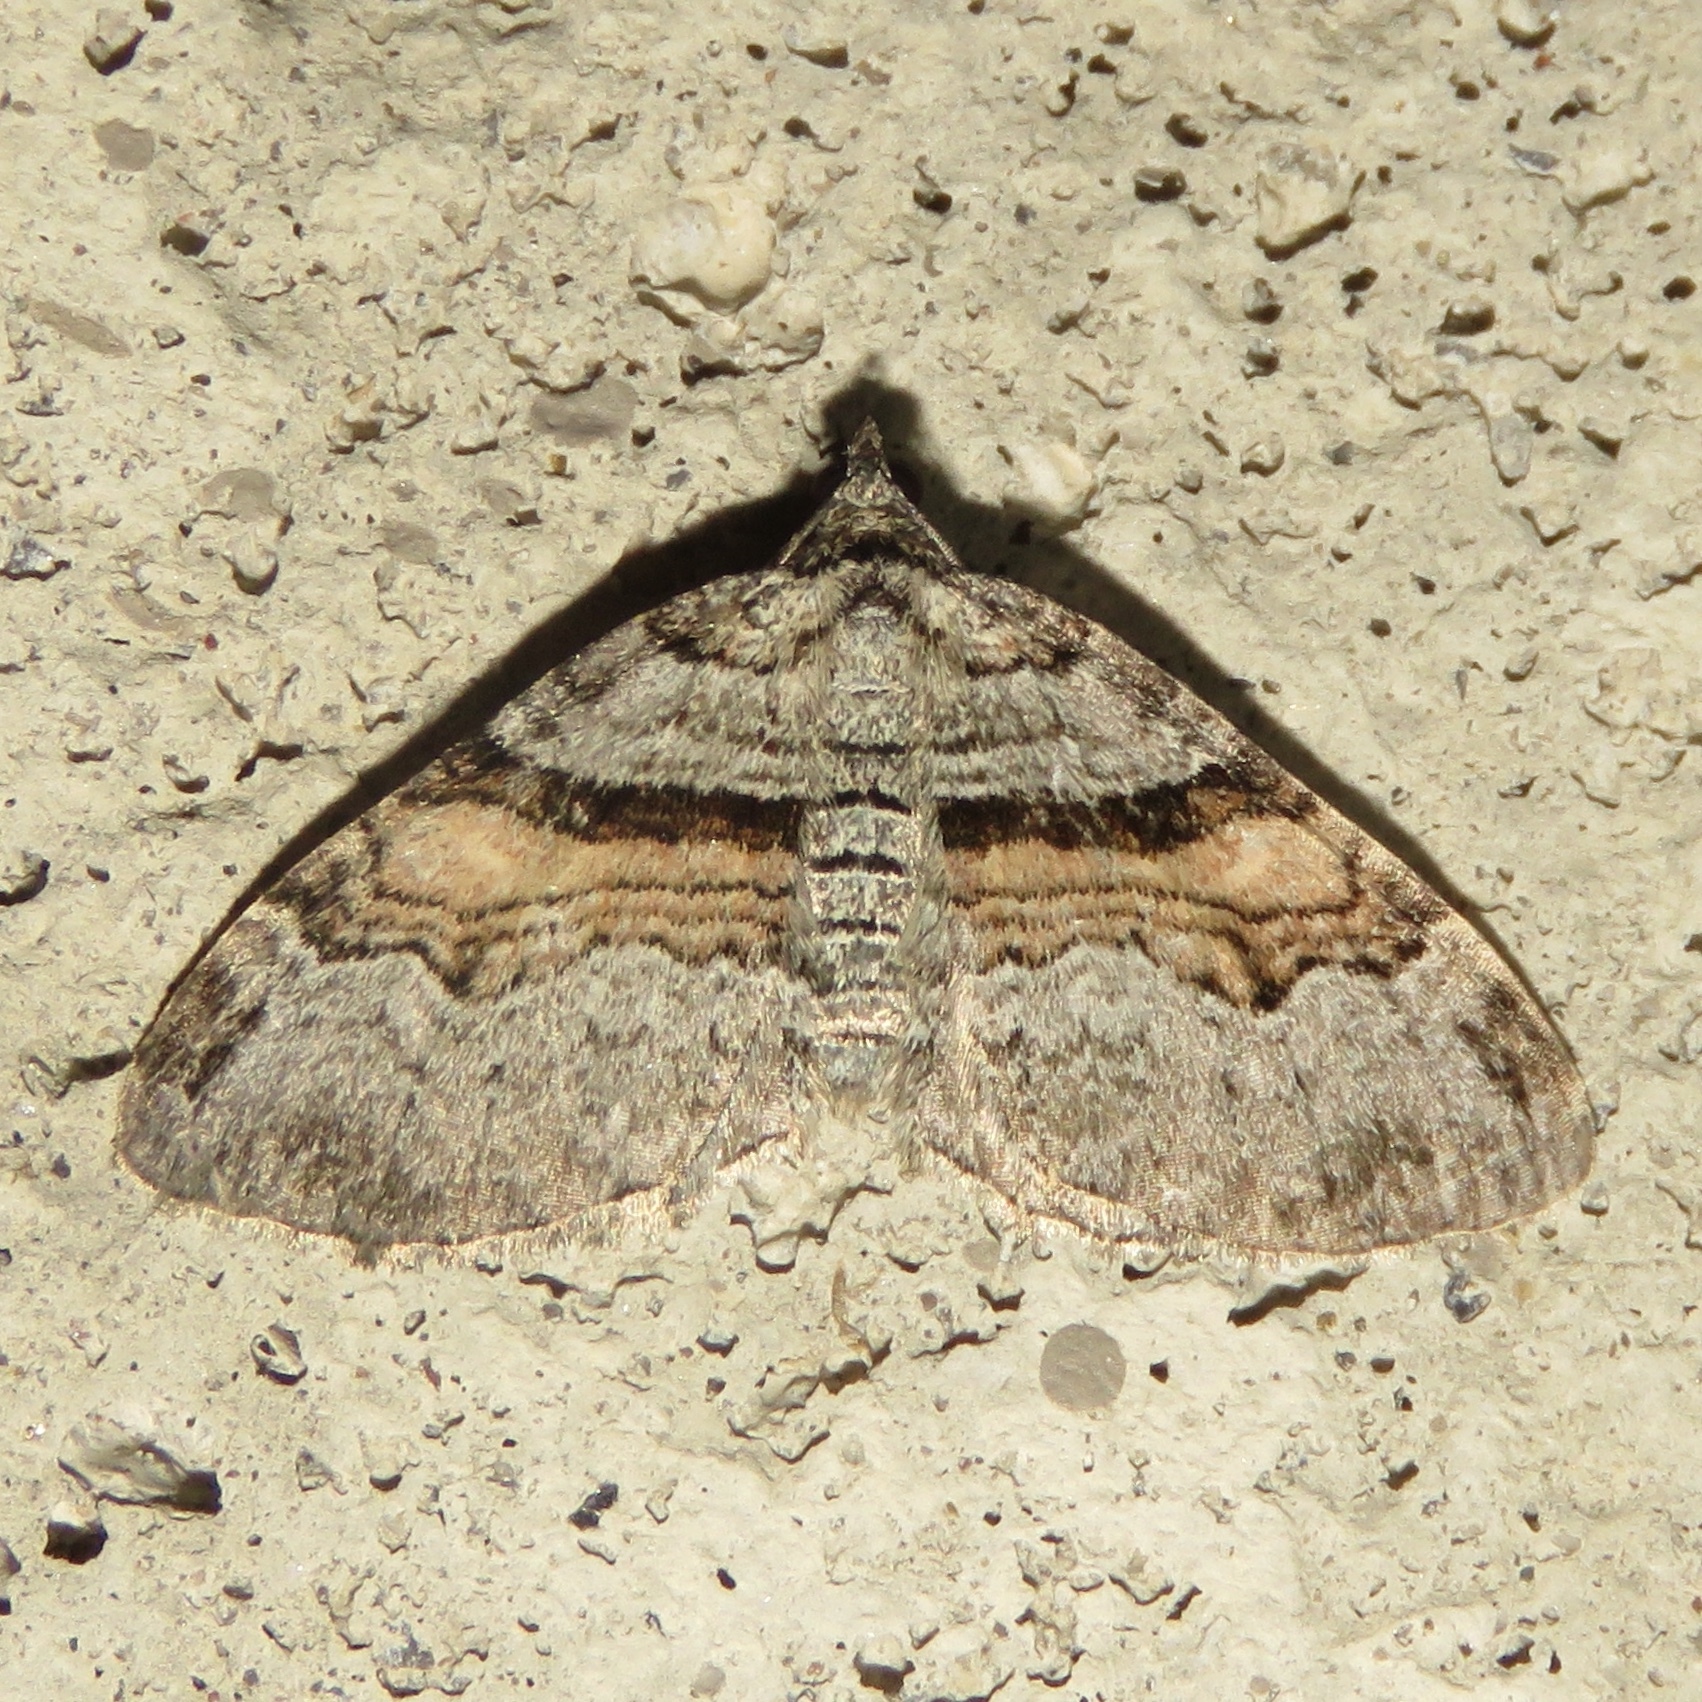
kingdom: Animalia
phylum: Arthropoda
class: Insecta
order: Lepidoptera
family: Geometridae
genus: Xanthorhoe
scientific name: Xanthorhoe labradorensis
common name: Labrador carpet
